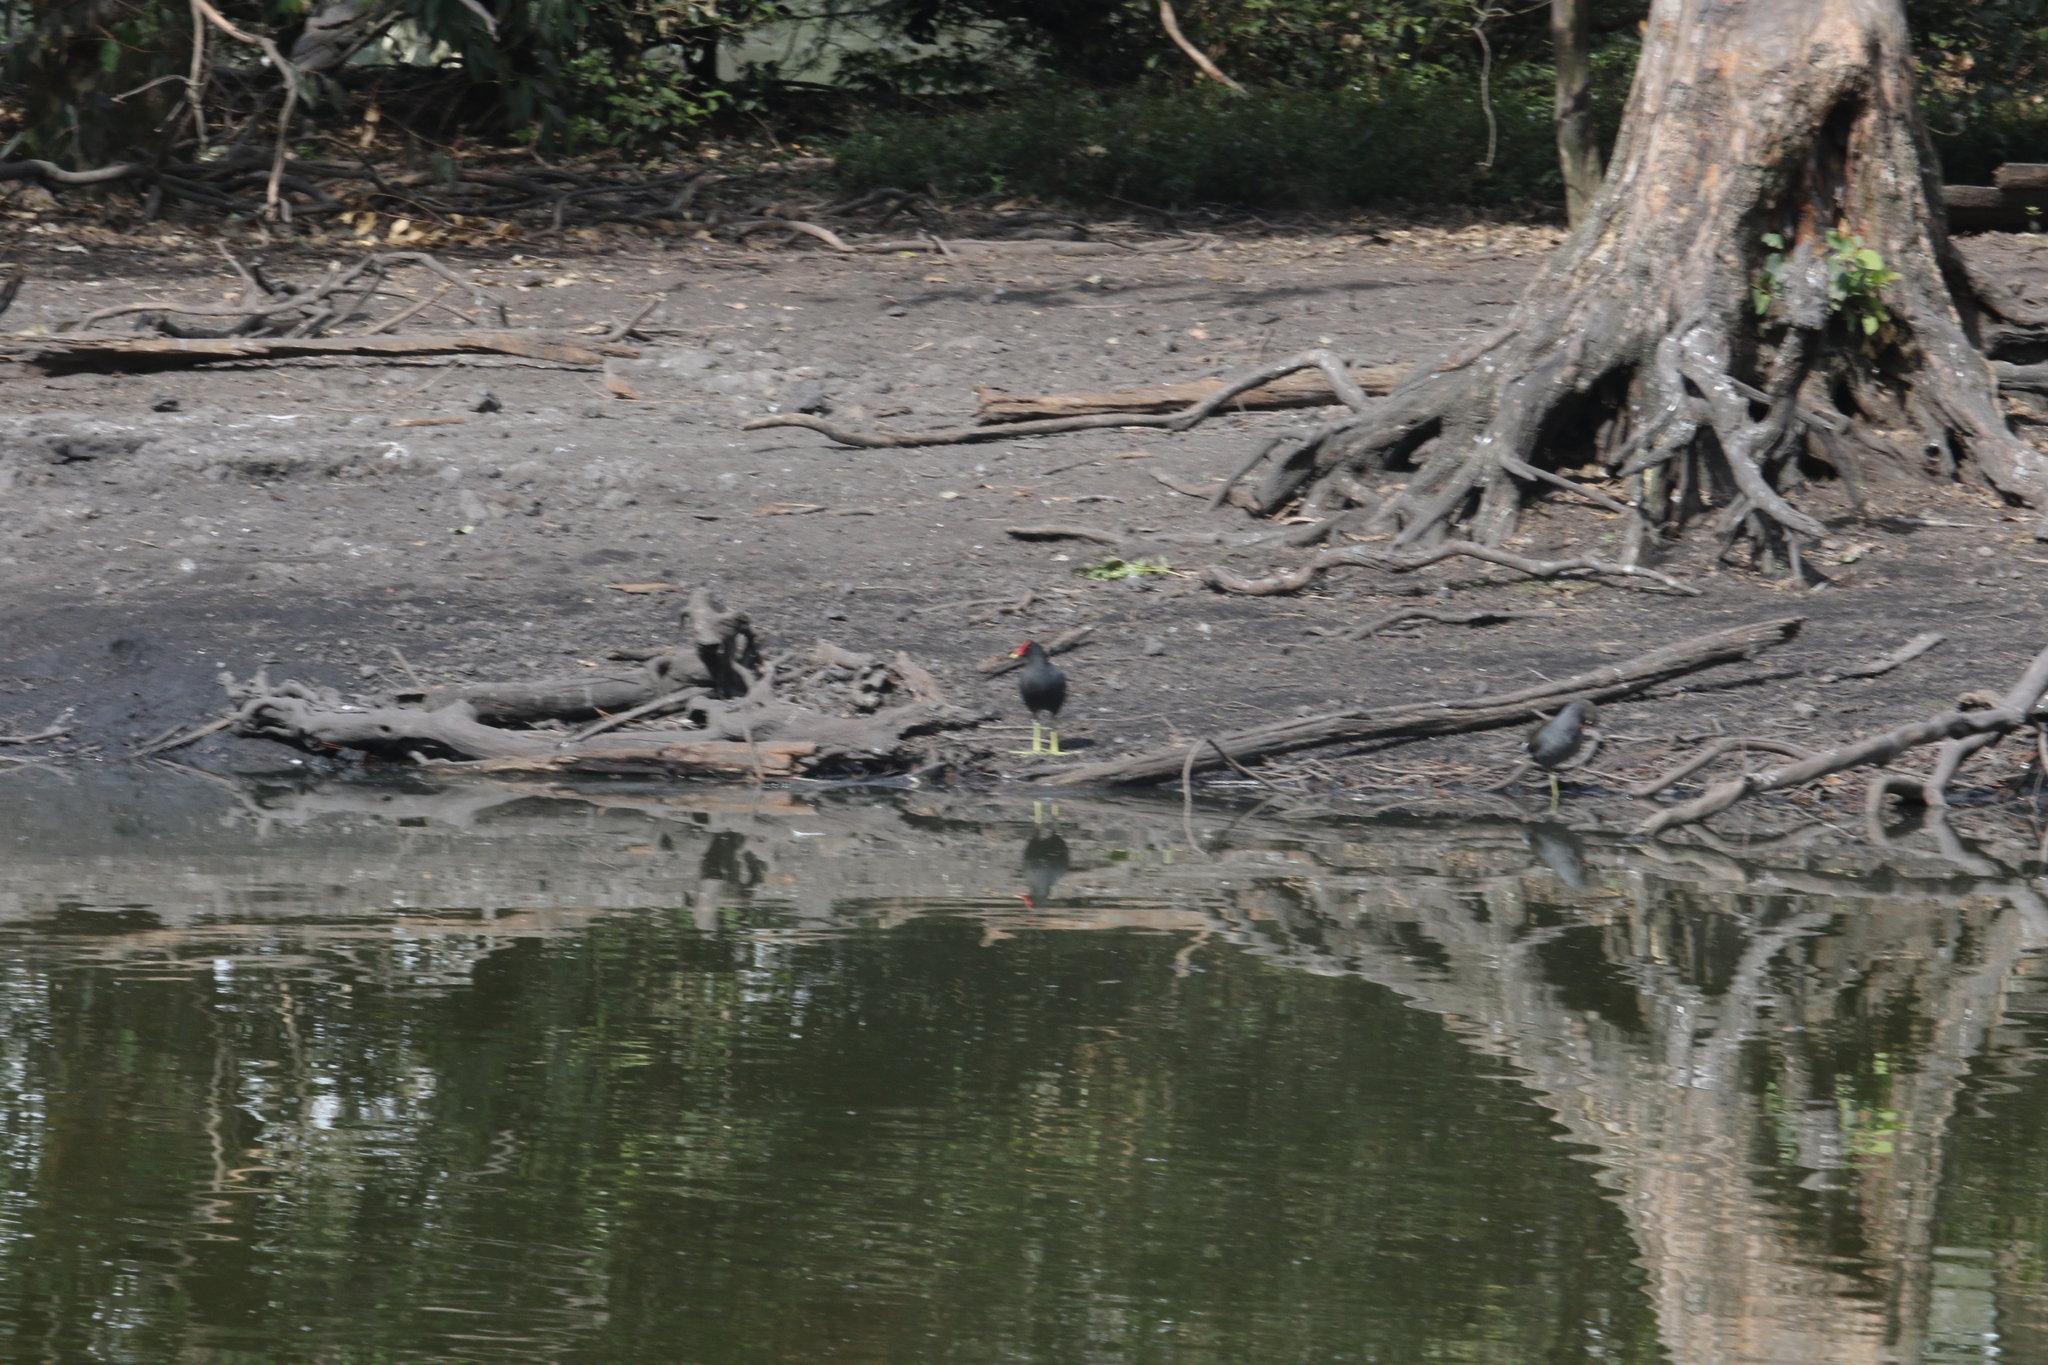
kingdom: Animalia
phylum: Chordata
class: Aves
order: Gruiformes
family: Rallidae
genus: Gallinula
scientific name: Gallinula chloropus
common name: Common moorhen
